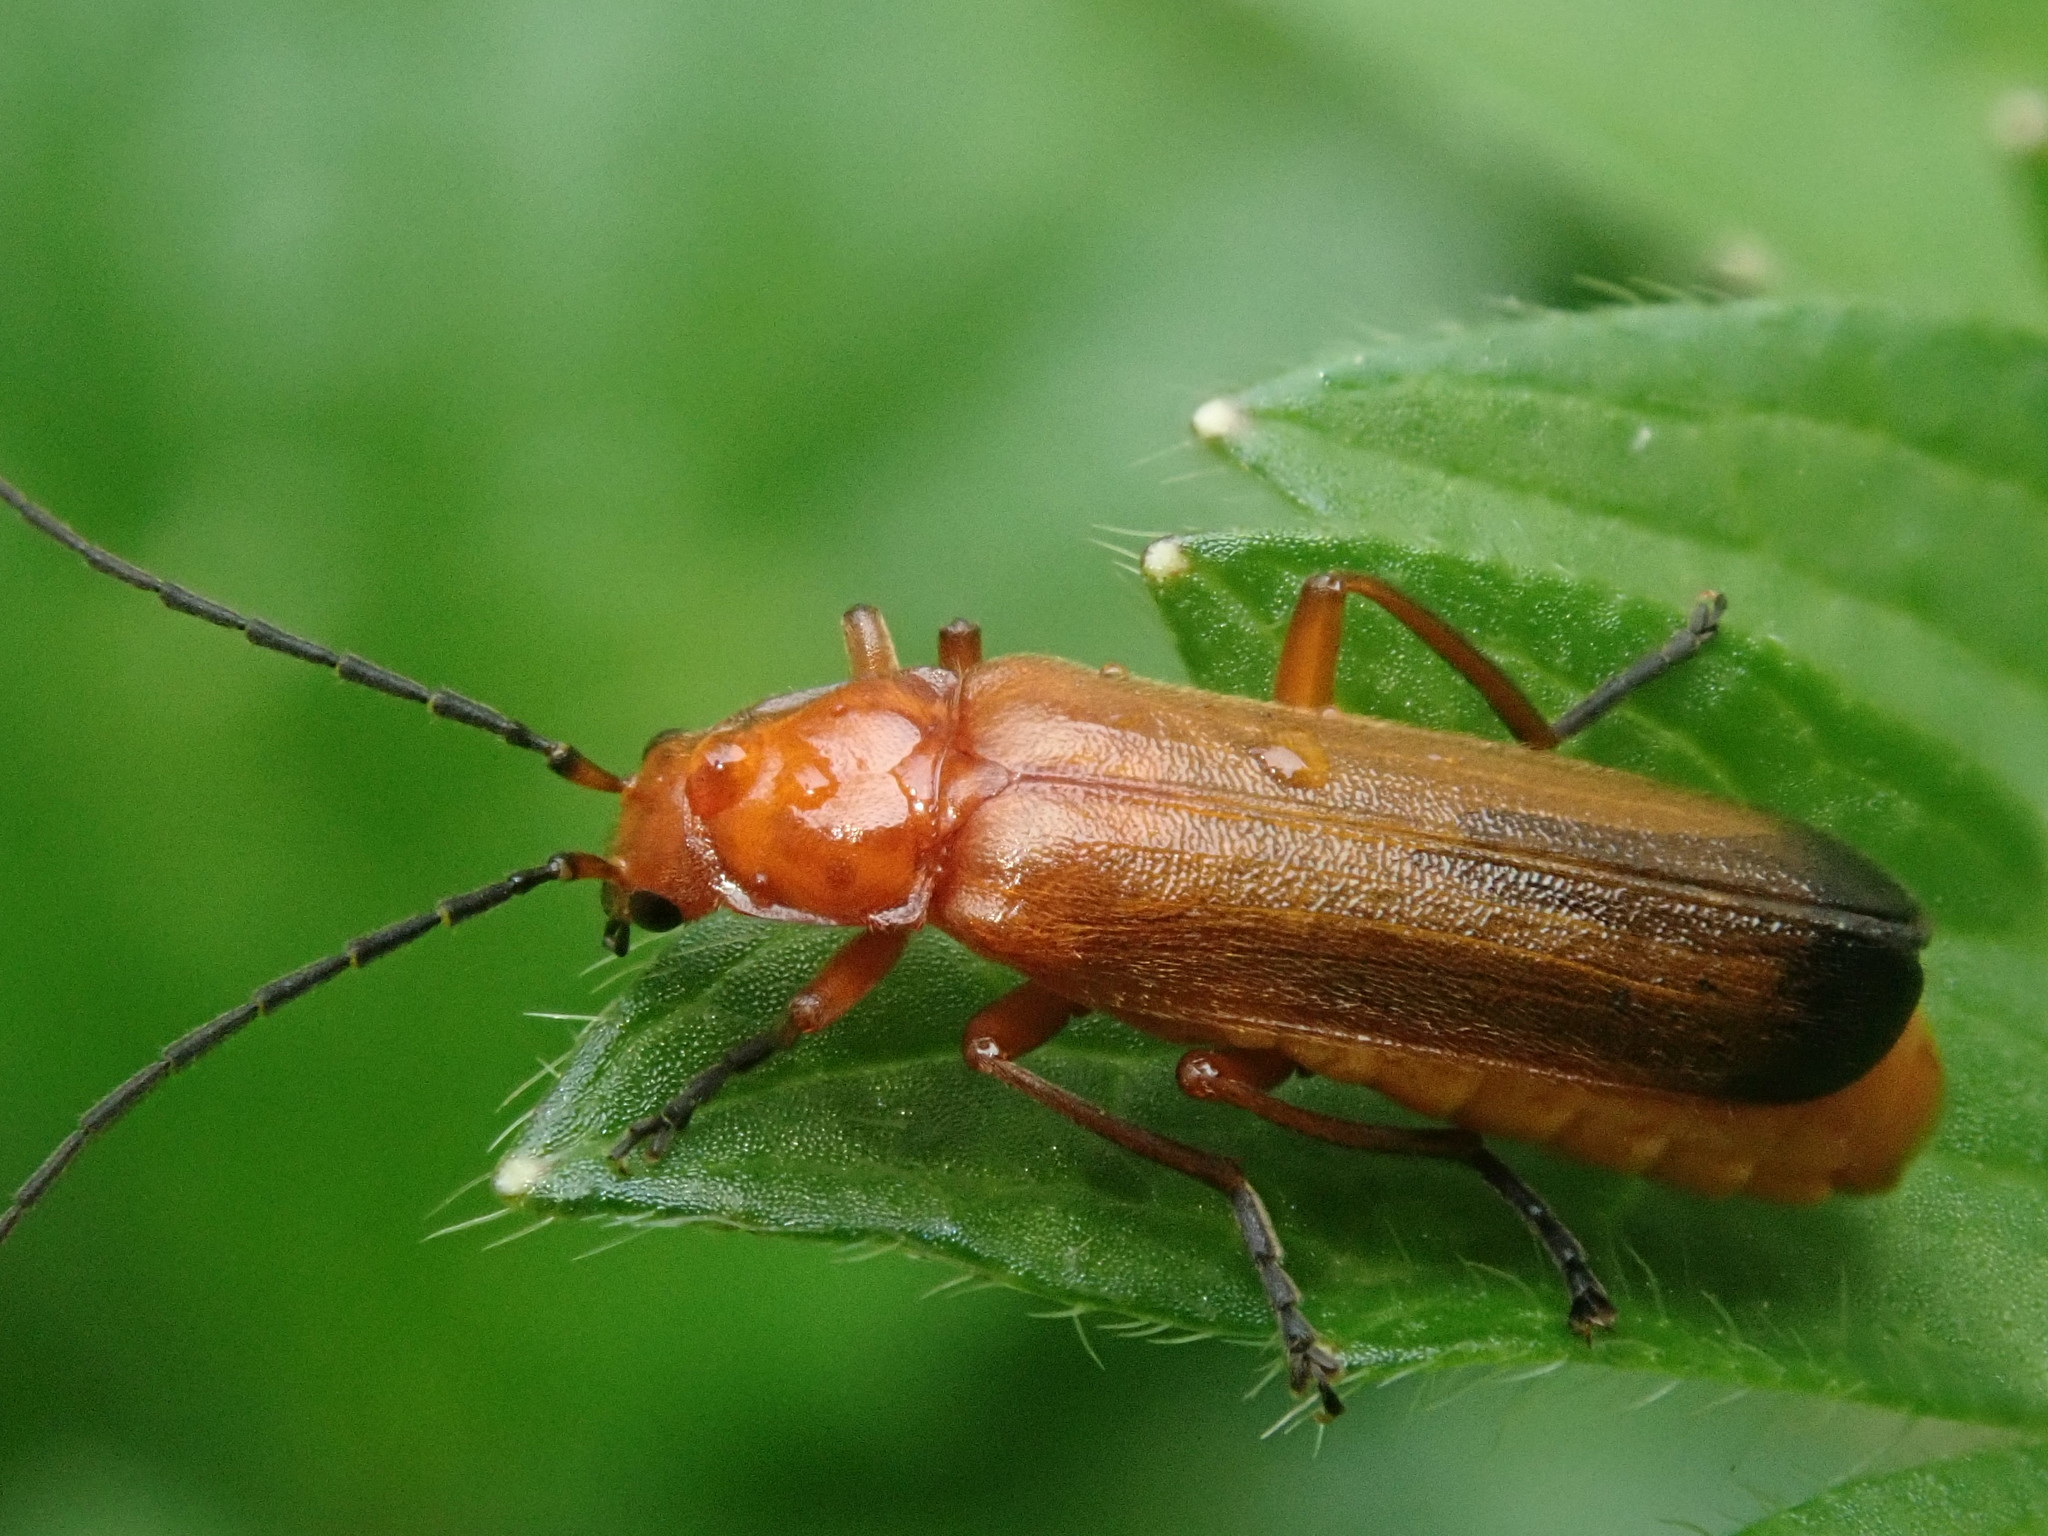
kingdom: Animalia
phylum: Arthropoda
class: Insecta
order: Coleoptera
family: Cantharidae
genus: Rhagonycha
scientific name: Rhagonycha fulva
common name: Common red soldier beetle
